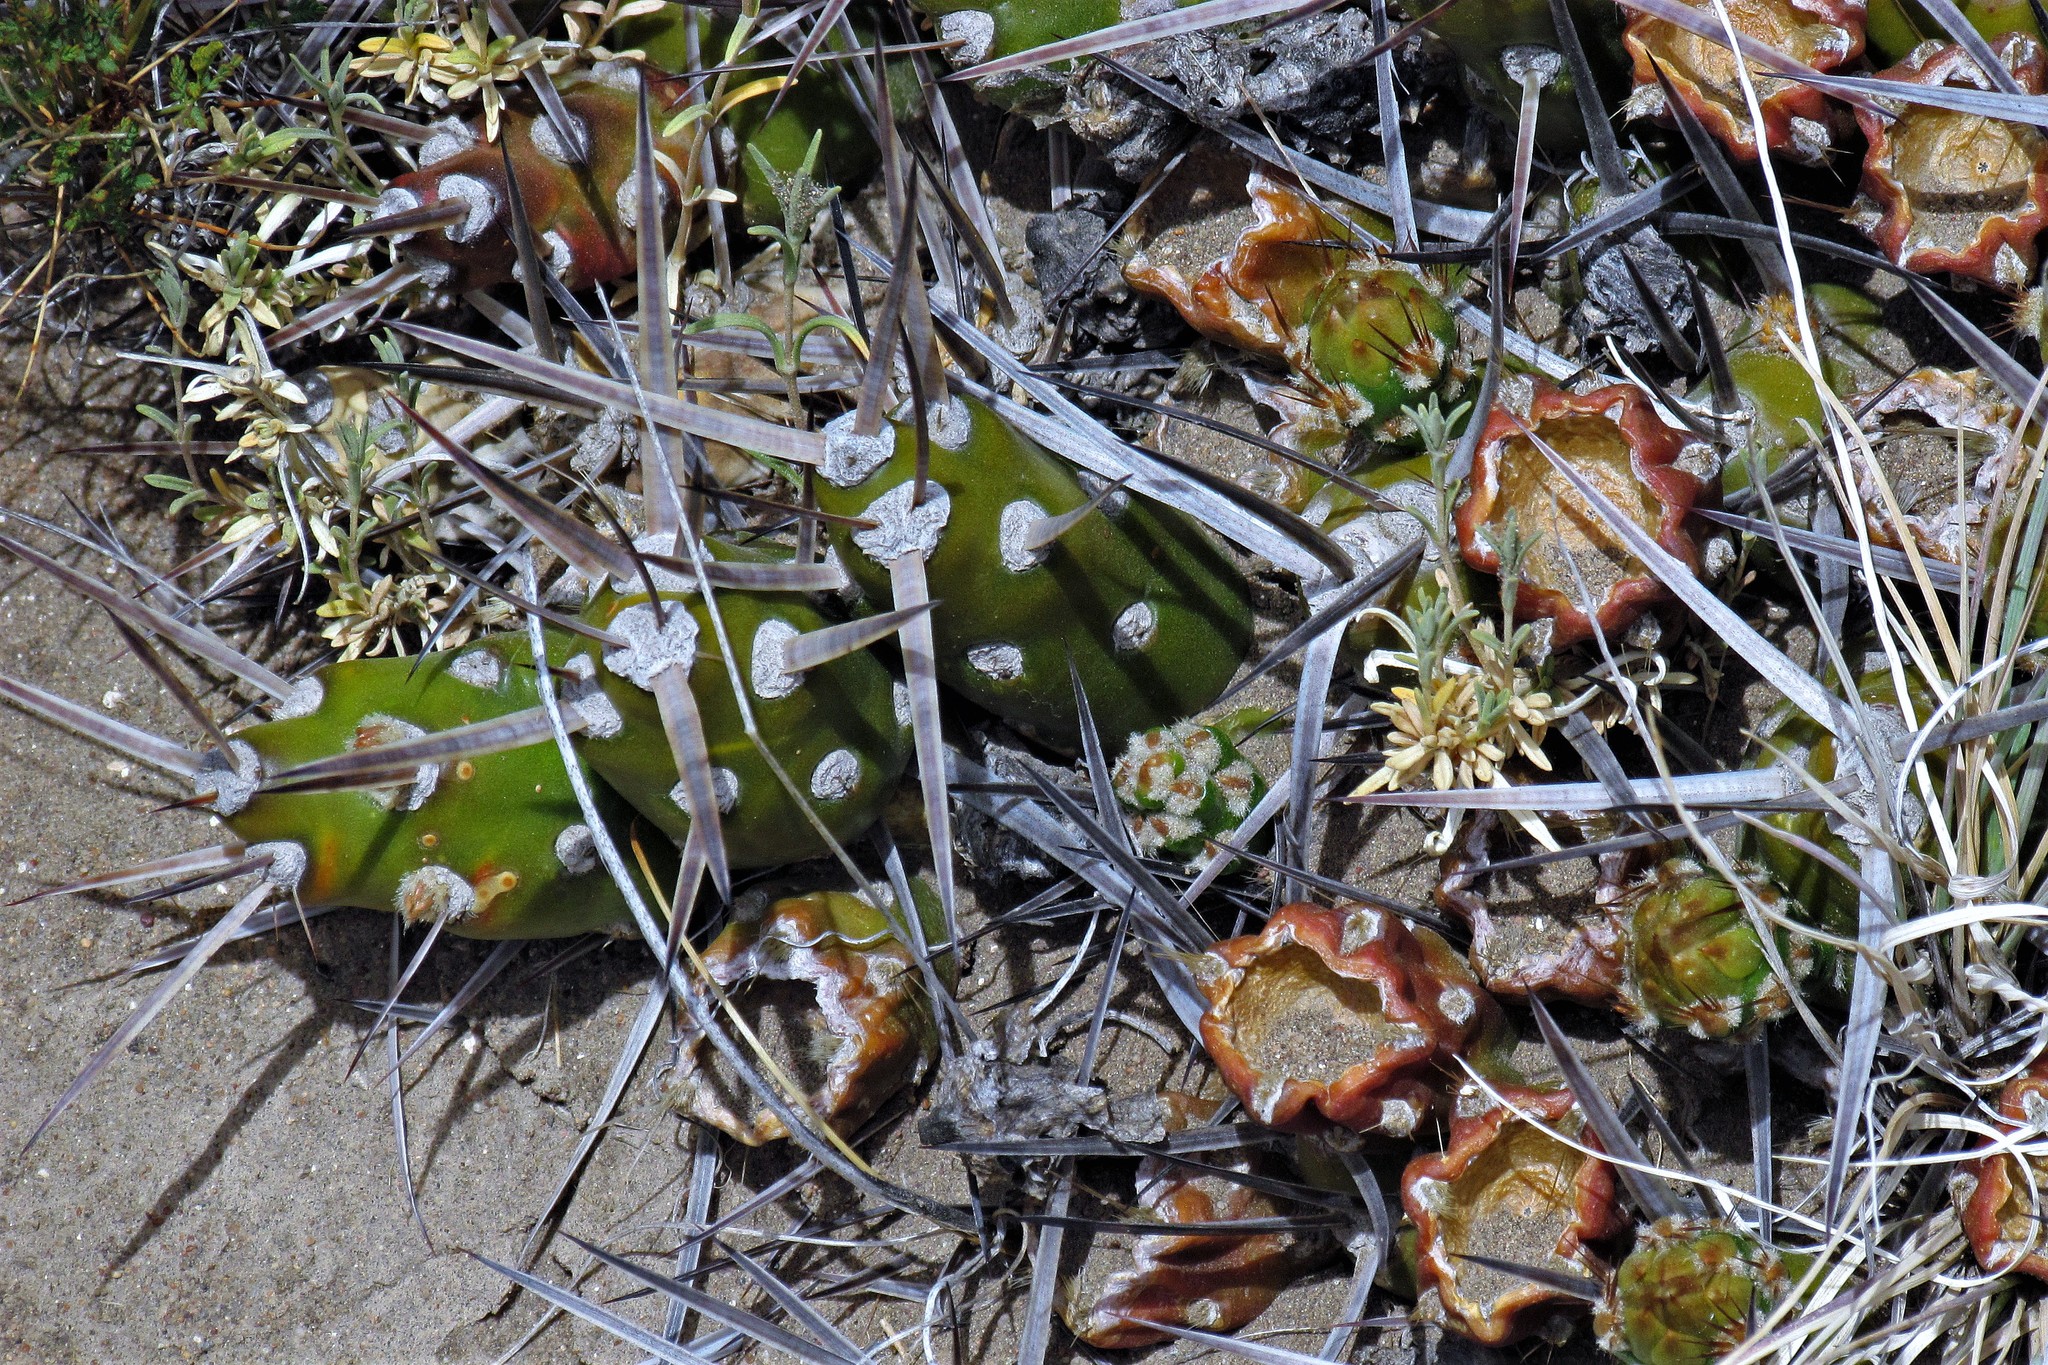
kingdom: Plantae
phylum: Tracheophyta
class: Magnoliopsida
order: Caryophyllales
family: Cactaceae
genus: Maihueniopsis
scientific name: Maihueniopsis hickenii
